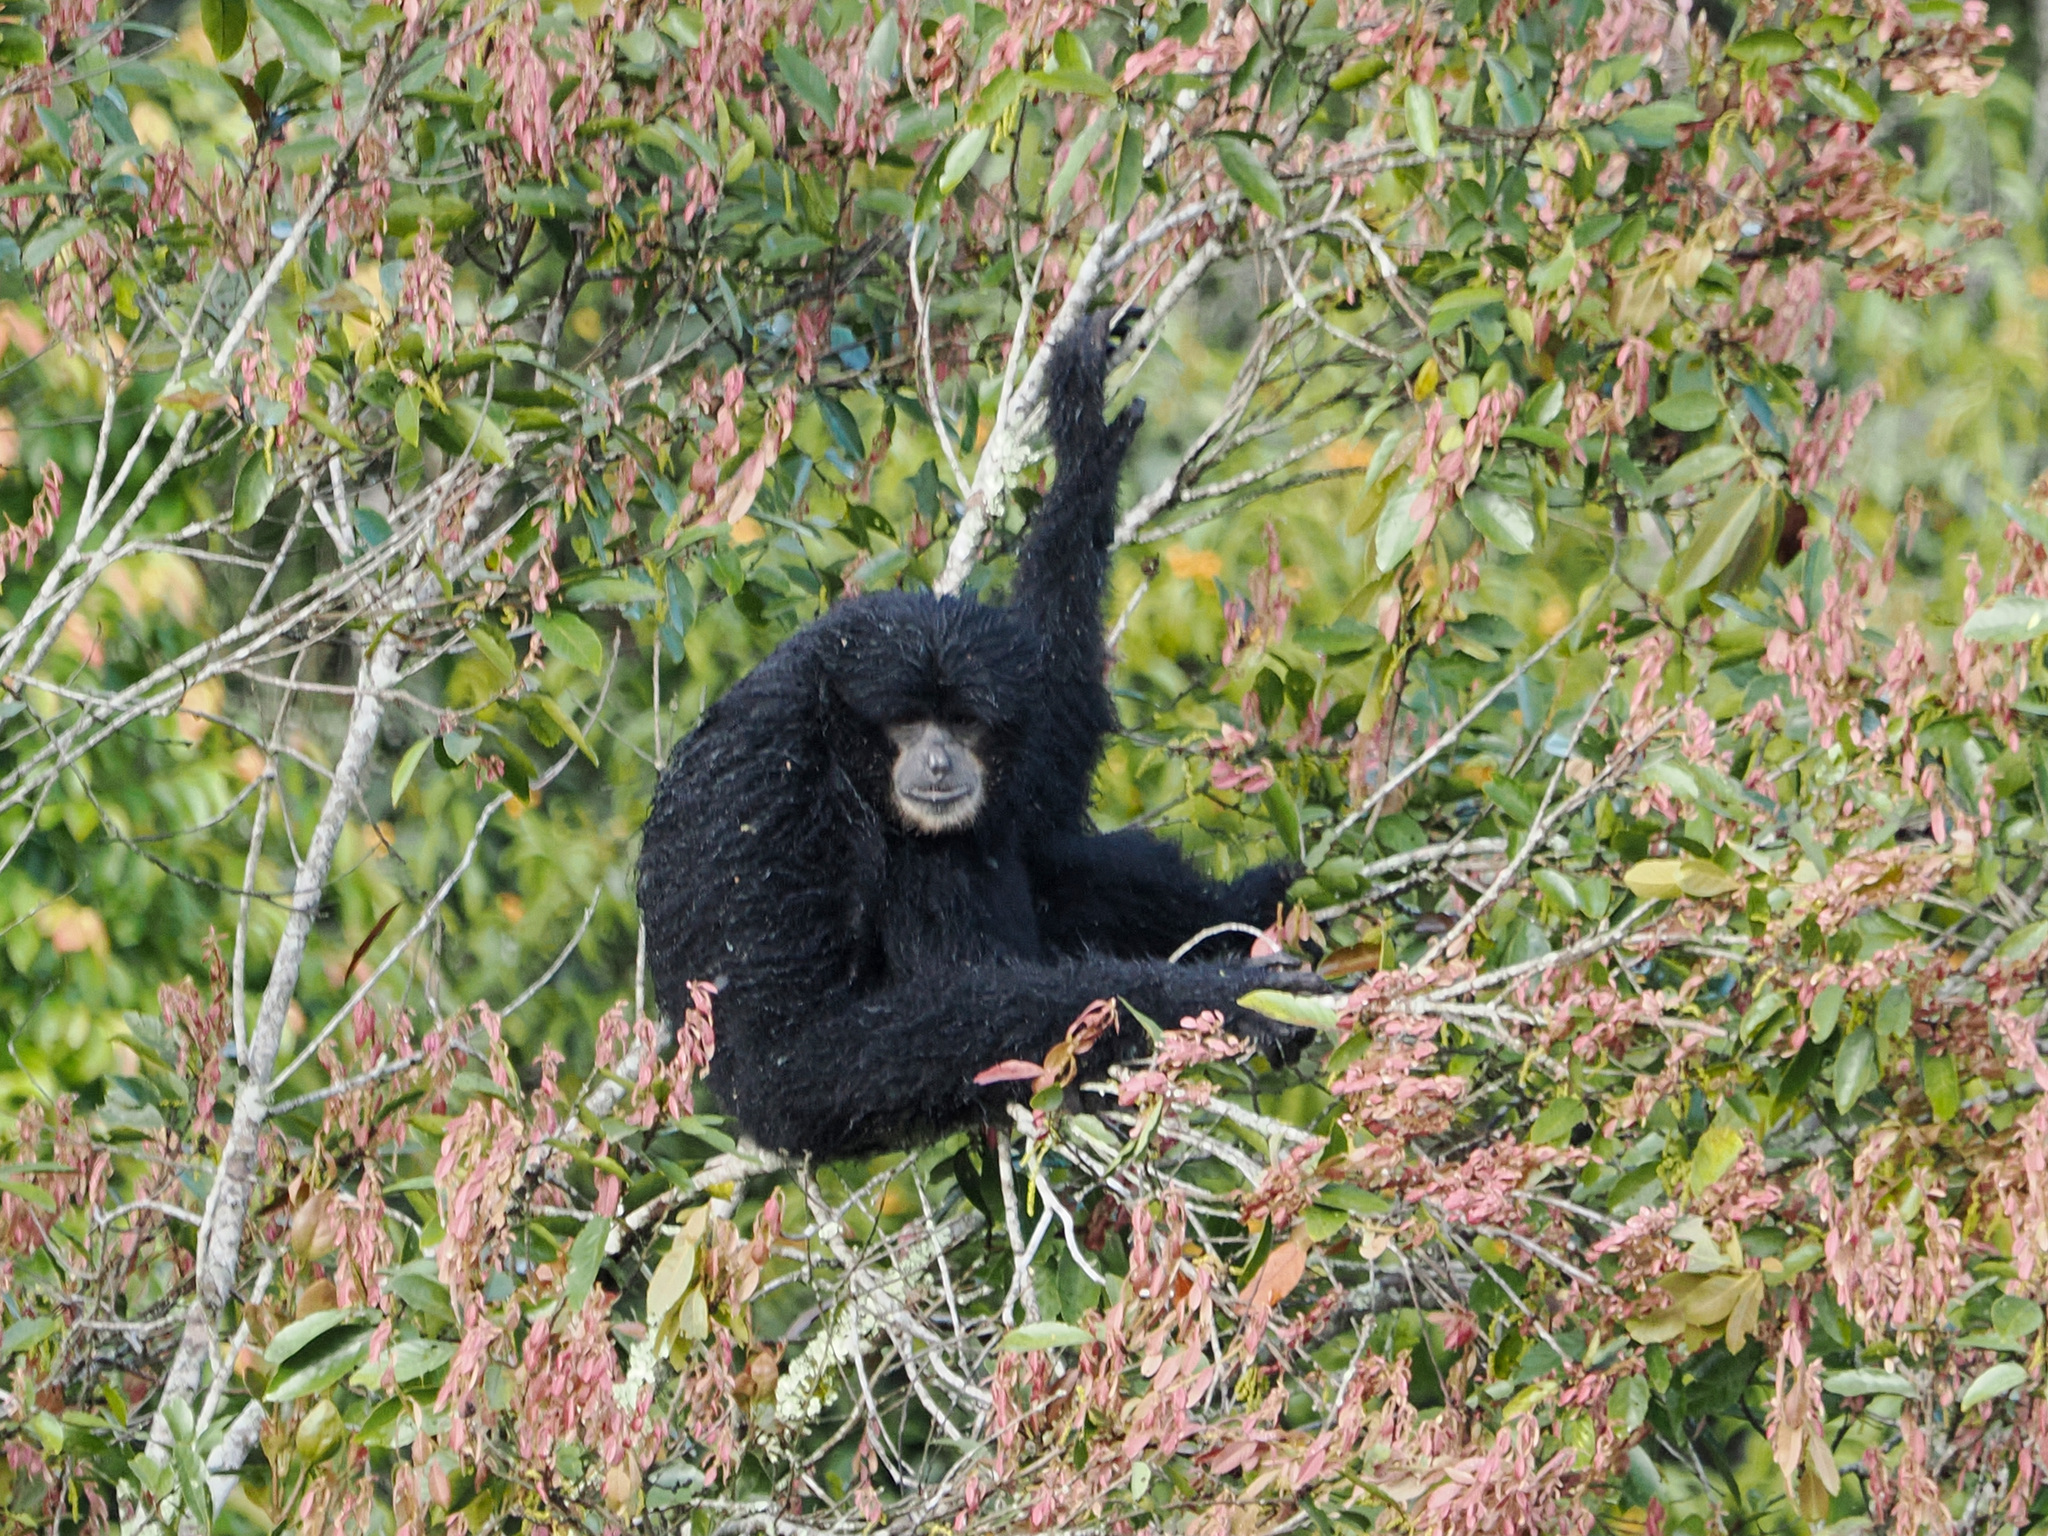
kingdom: Animalia
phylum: Chordata
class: Mammalia
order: Primates
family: Hylobatidae
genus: Symphalangus
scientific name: Symphalangus syndactylus
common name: Siamang
